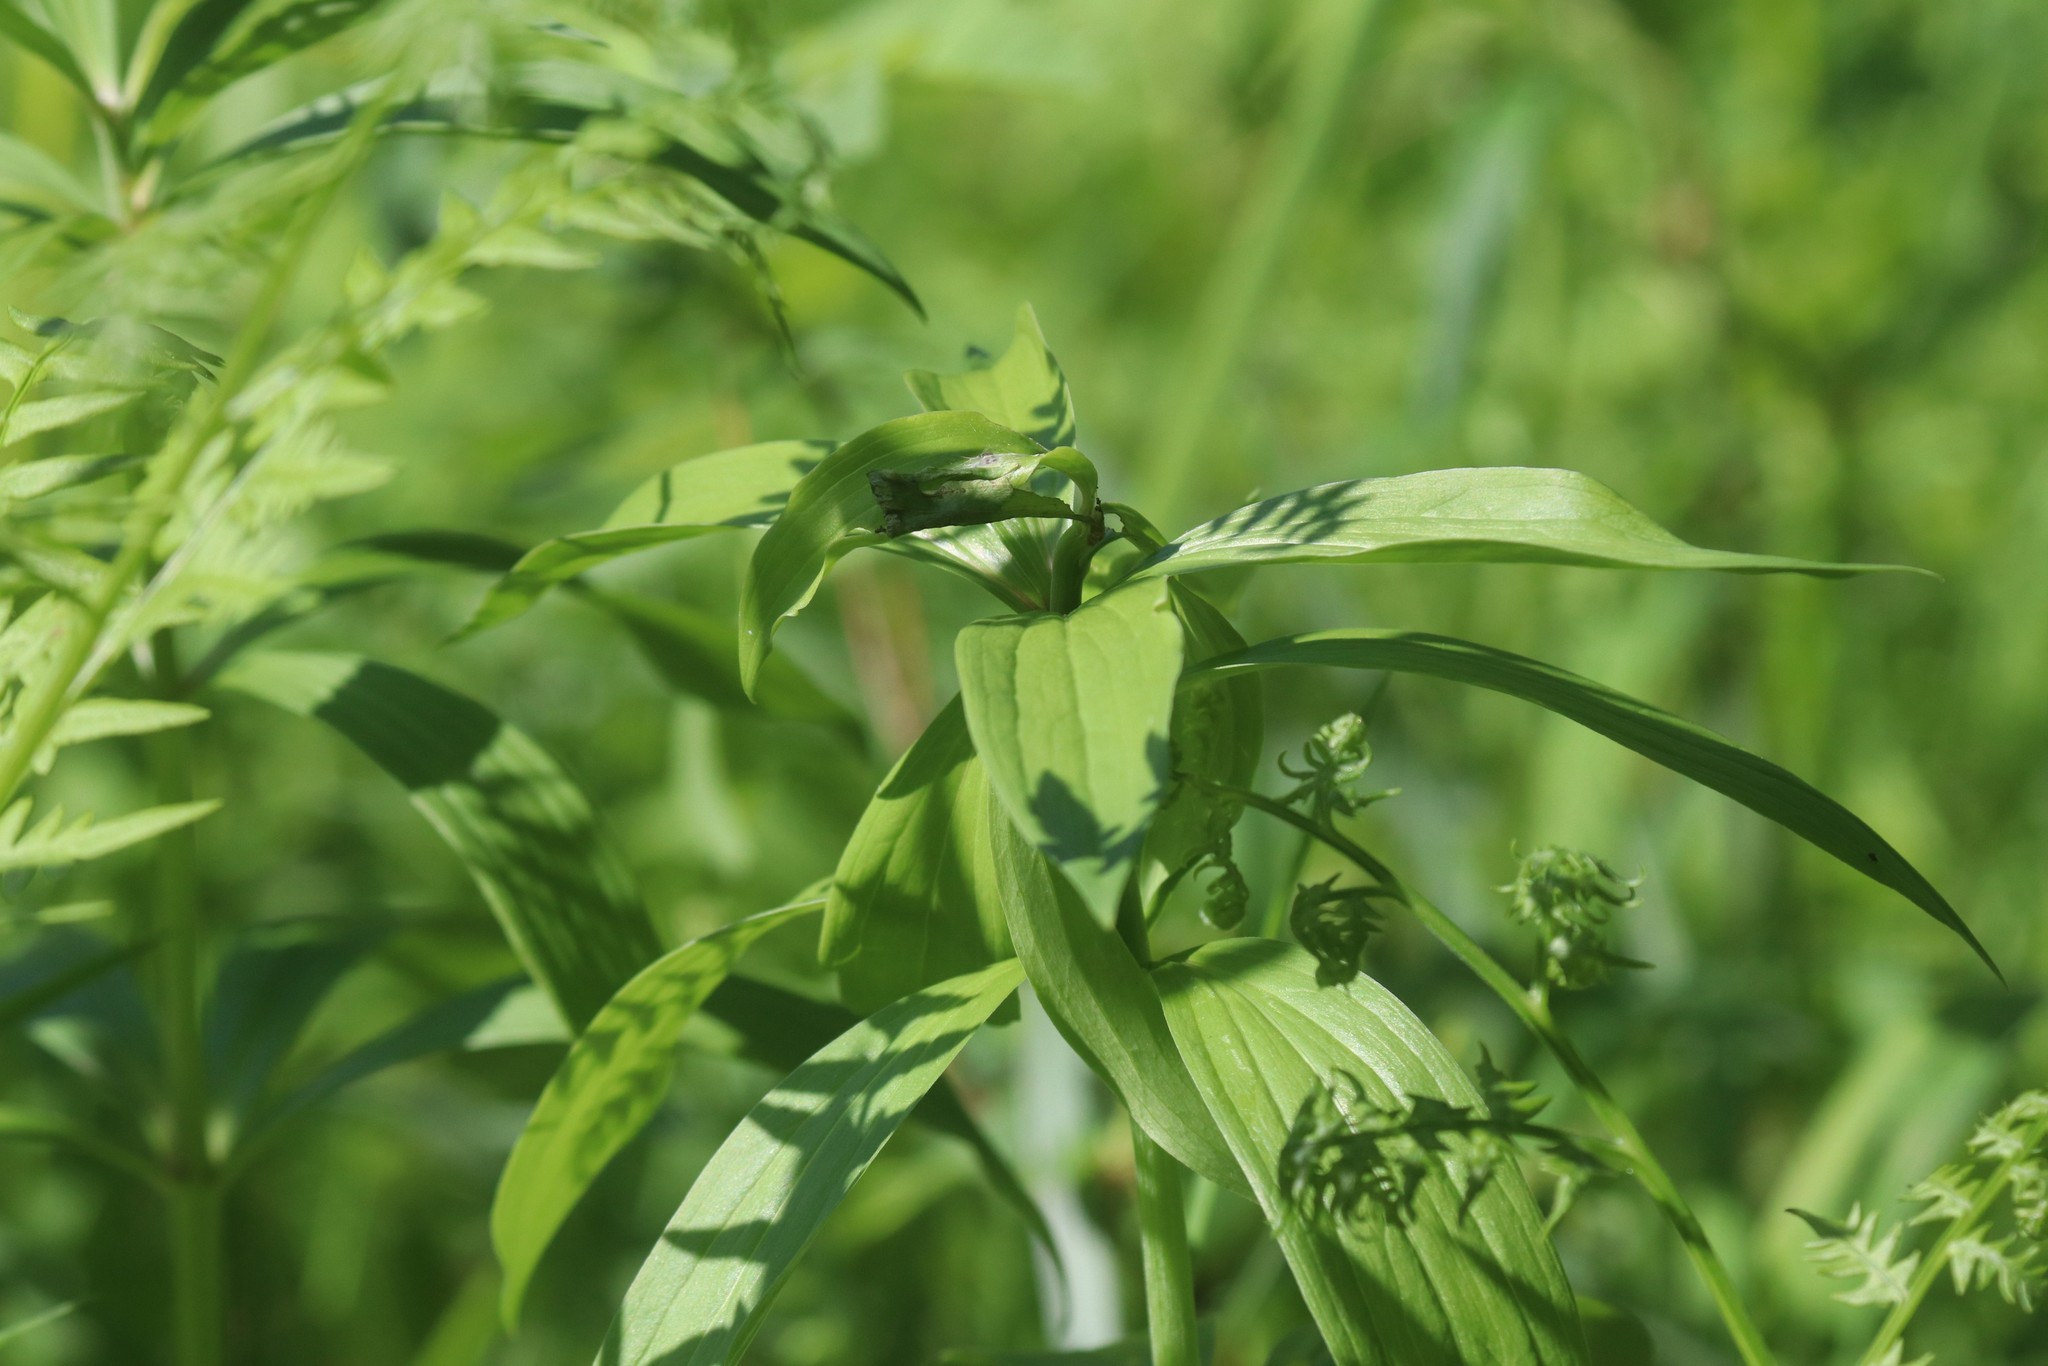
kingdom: Plantae
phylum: Tracheophyta
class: Liliopsida
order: Liliales
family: Liliaceae
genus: Lilium
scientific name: Lilium martagon
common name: Martagon lily
